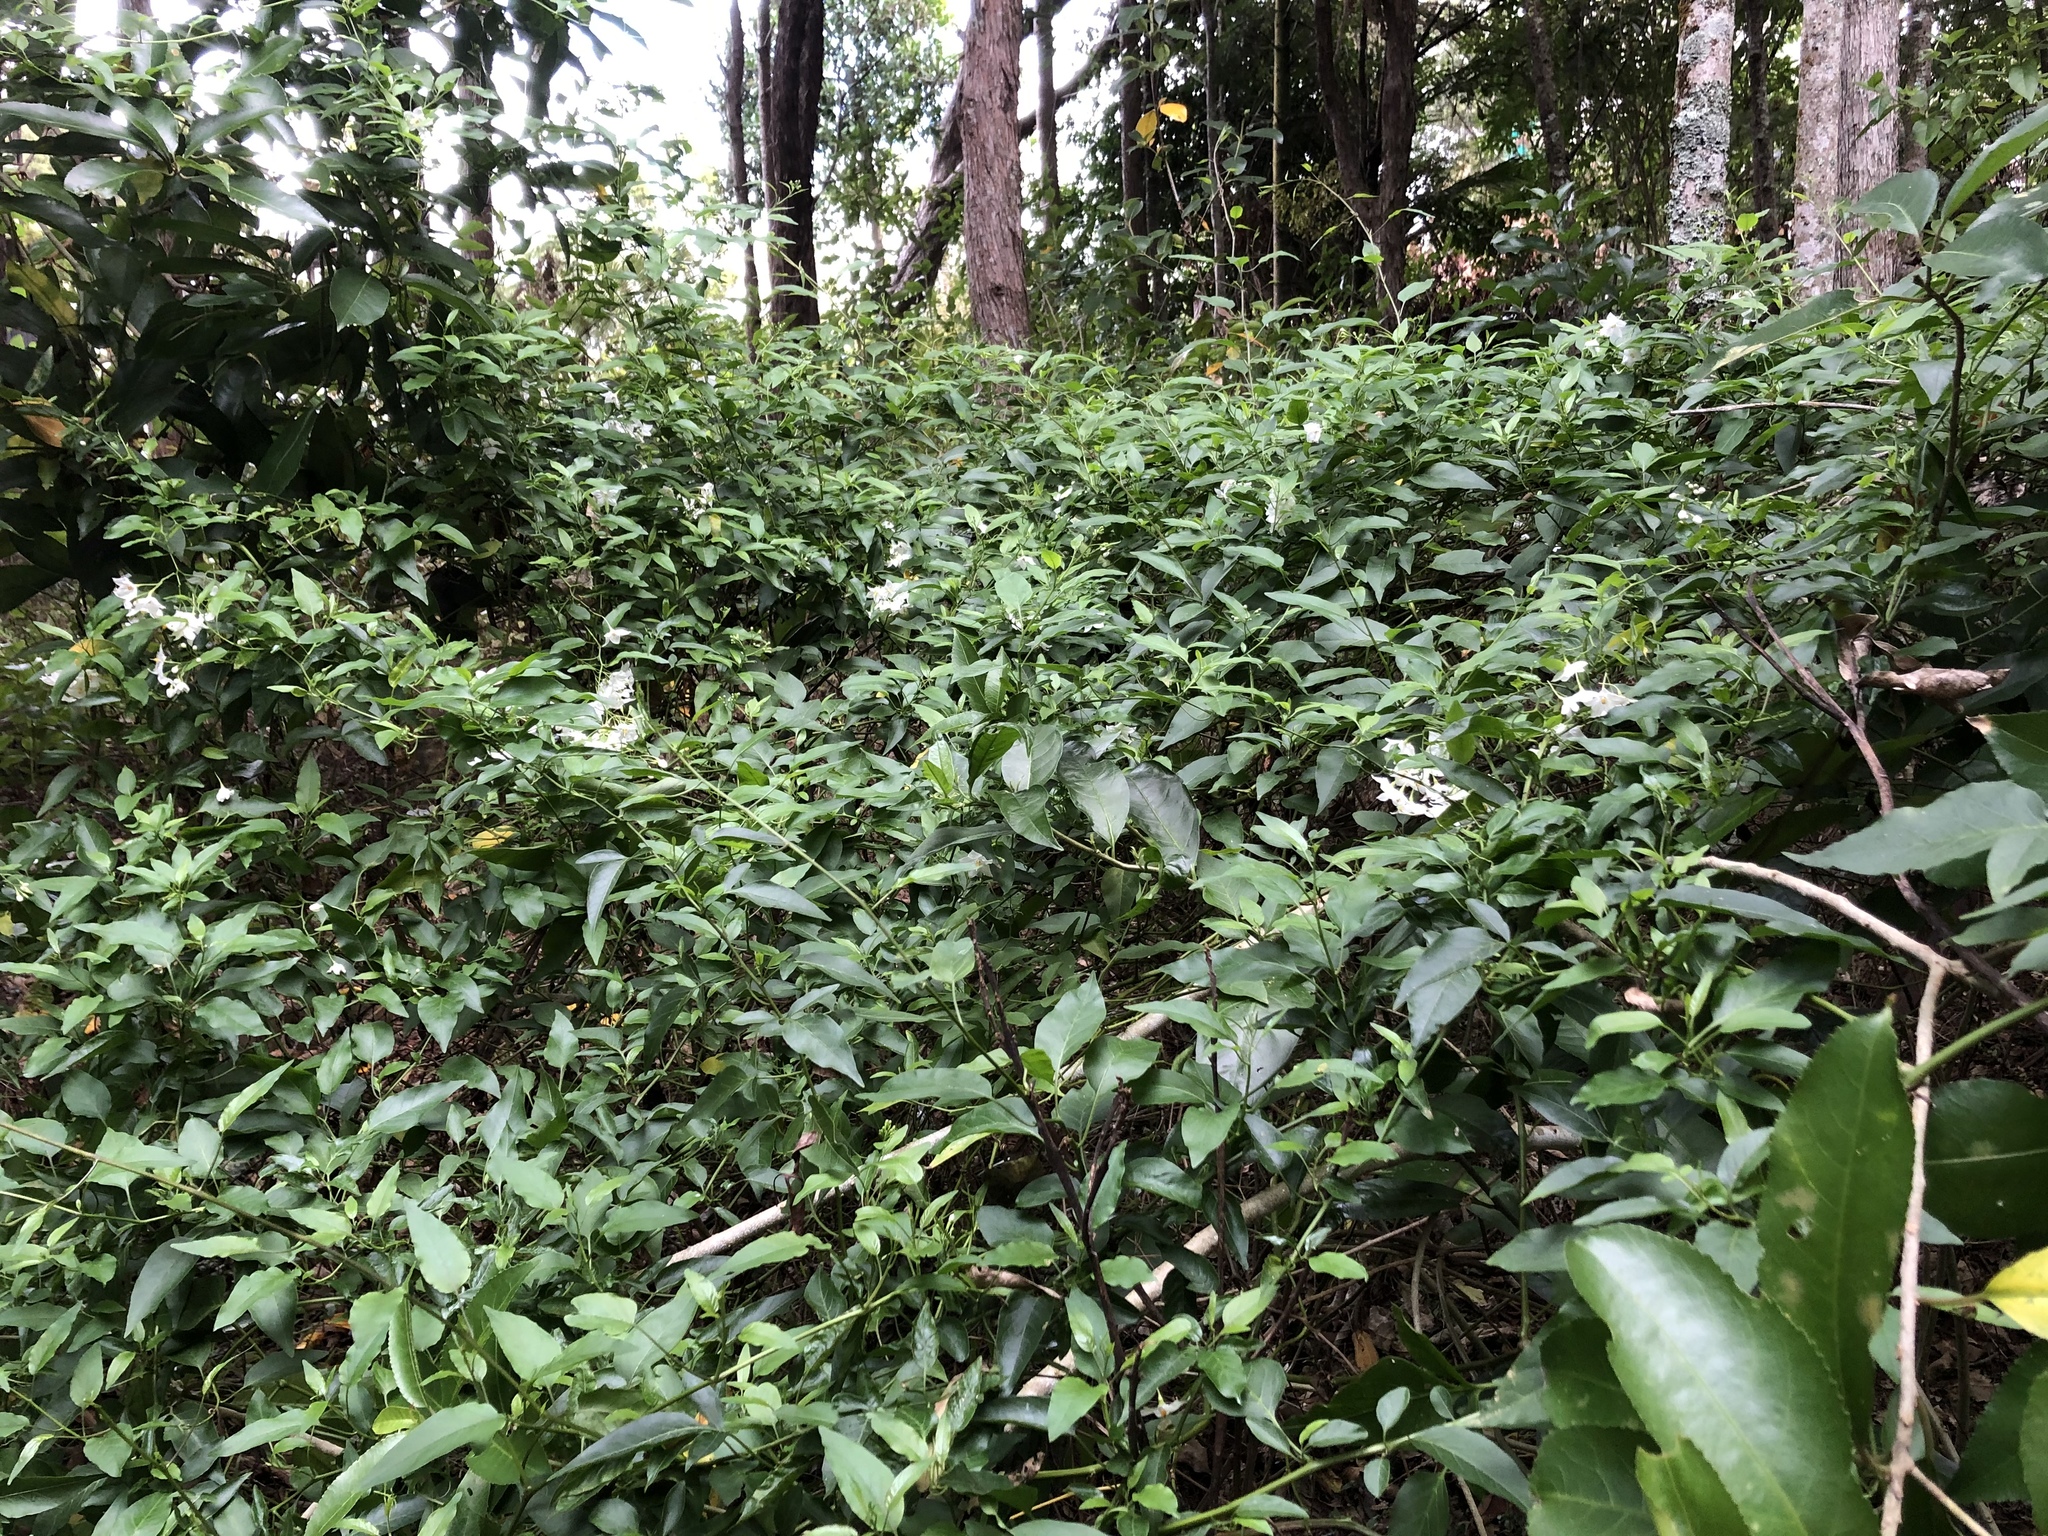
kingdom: Plantae
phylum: Tracheophyta
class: Magnoliopsida
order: Solanales
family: Solanaceae
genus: Solanum
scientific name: Solanum laxum
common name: Nightshade
